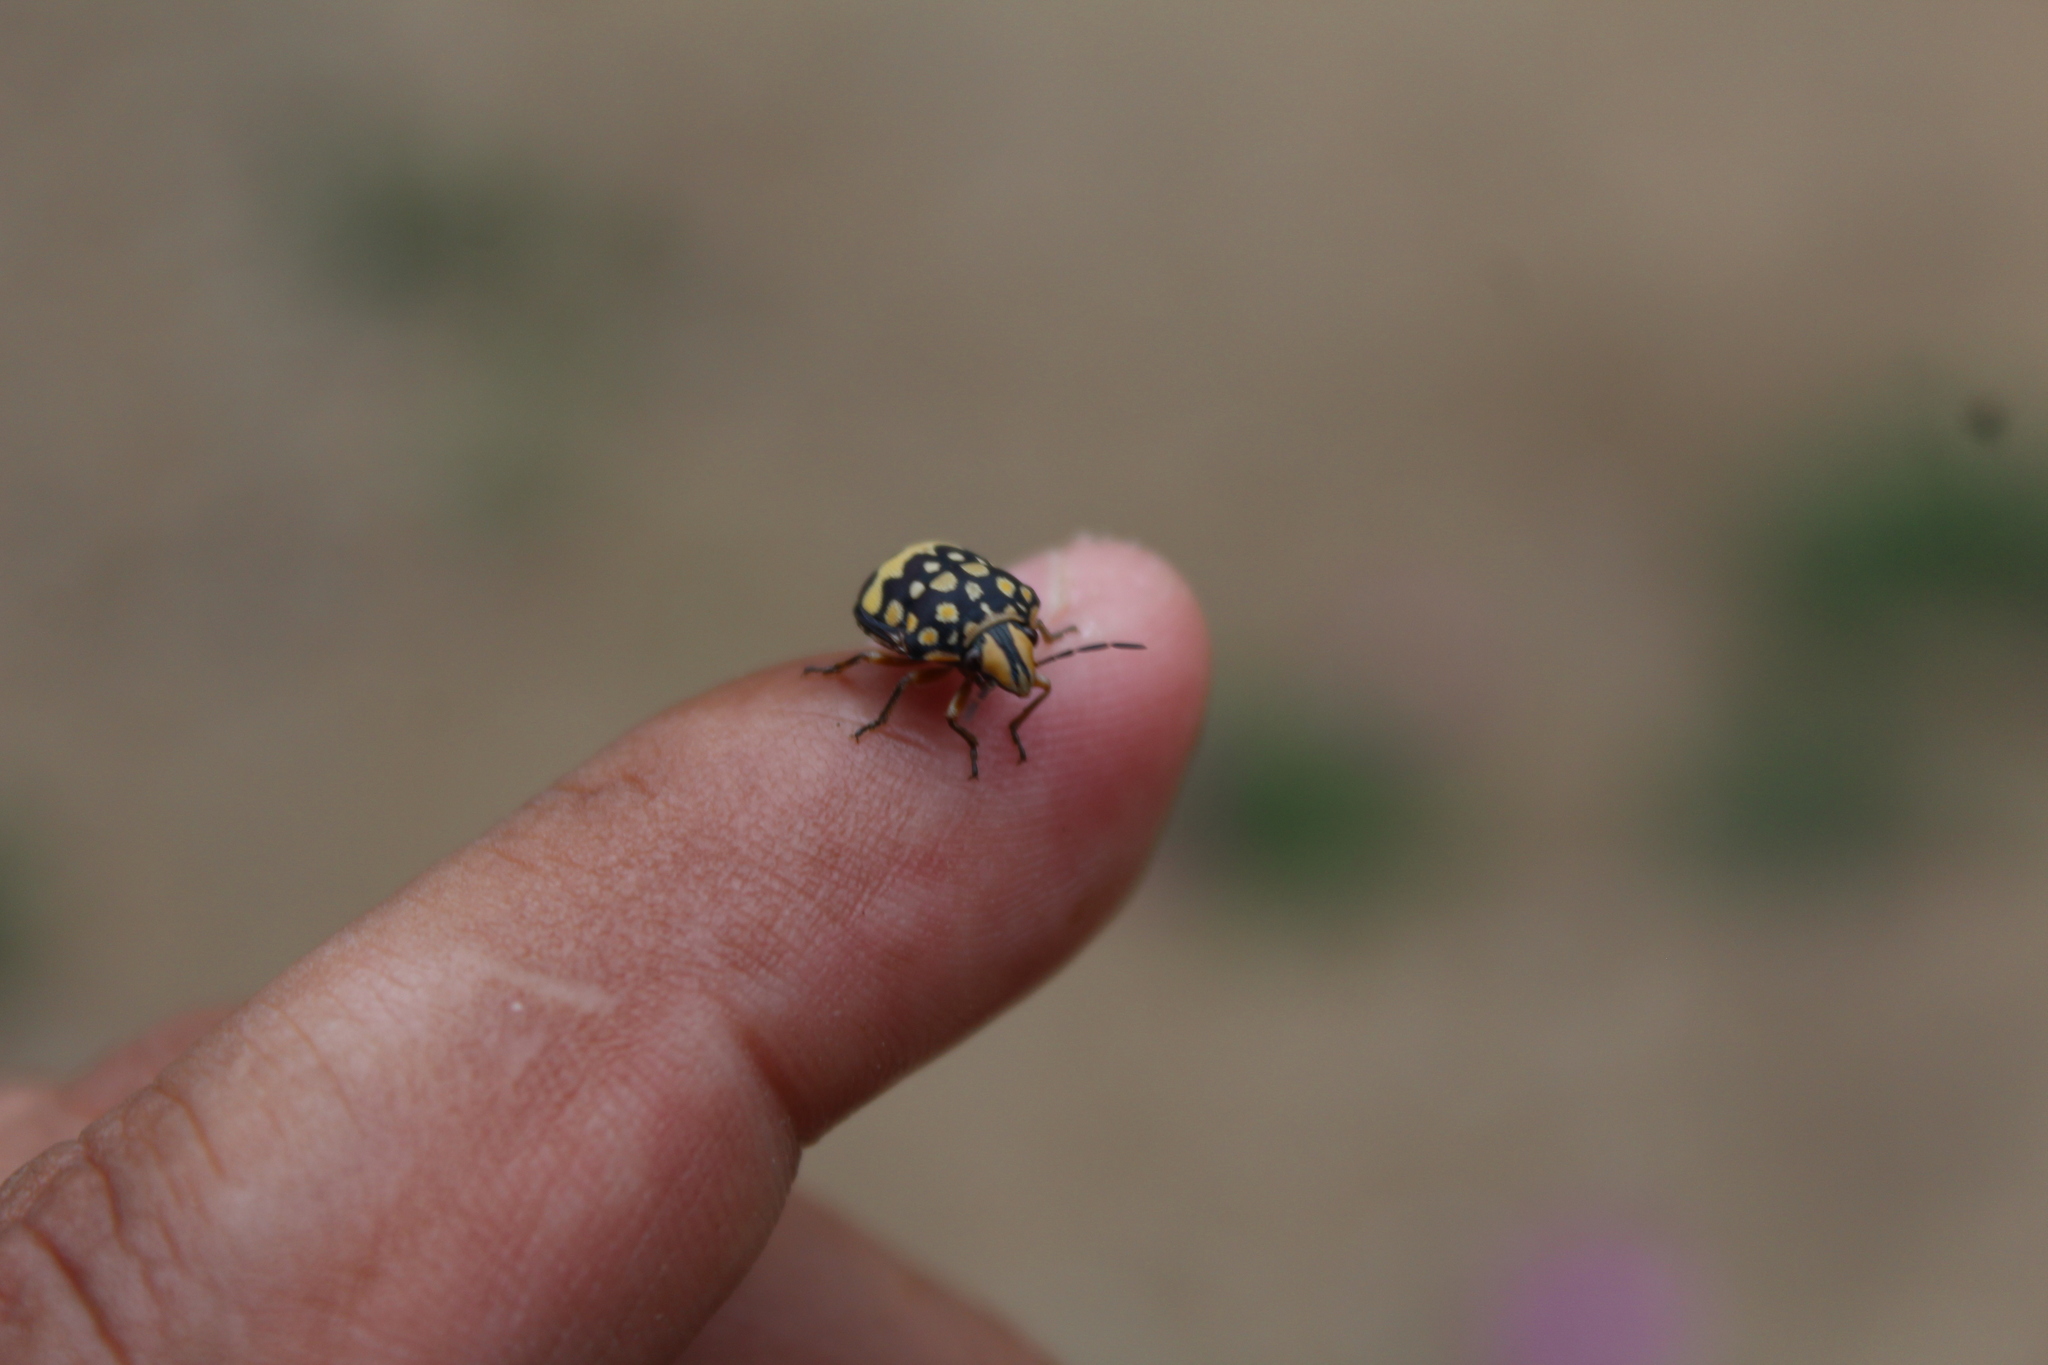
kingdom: Animalia
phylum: Arthropoda
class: Insecta
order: Hemiptera
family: Scutelleridae
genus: Orsilochides
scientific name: Orsilochides
